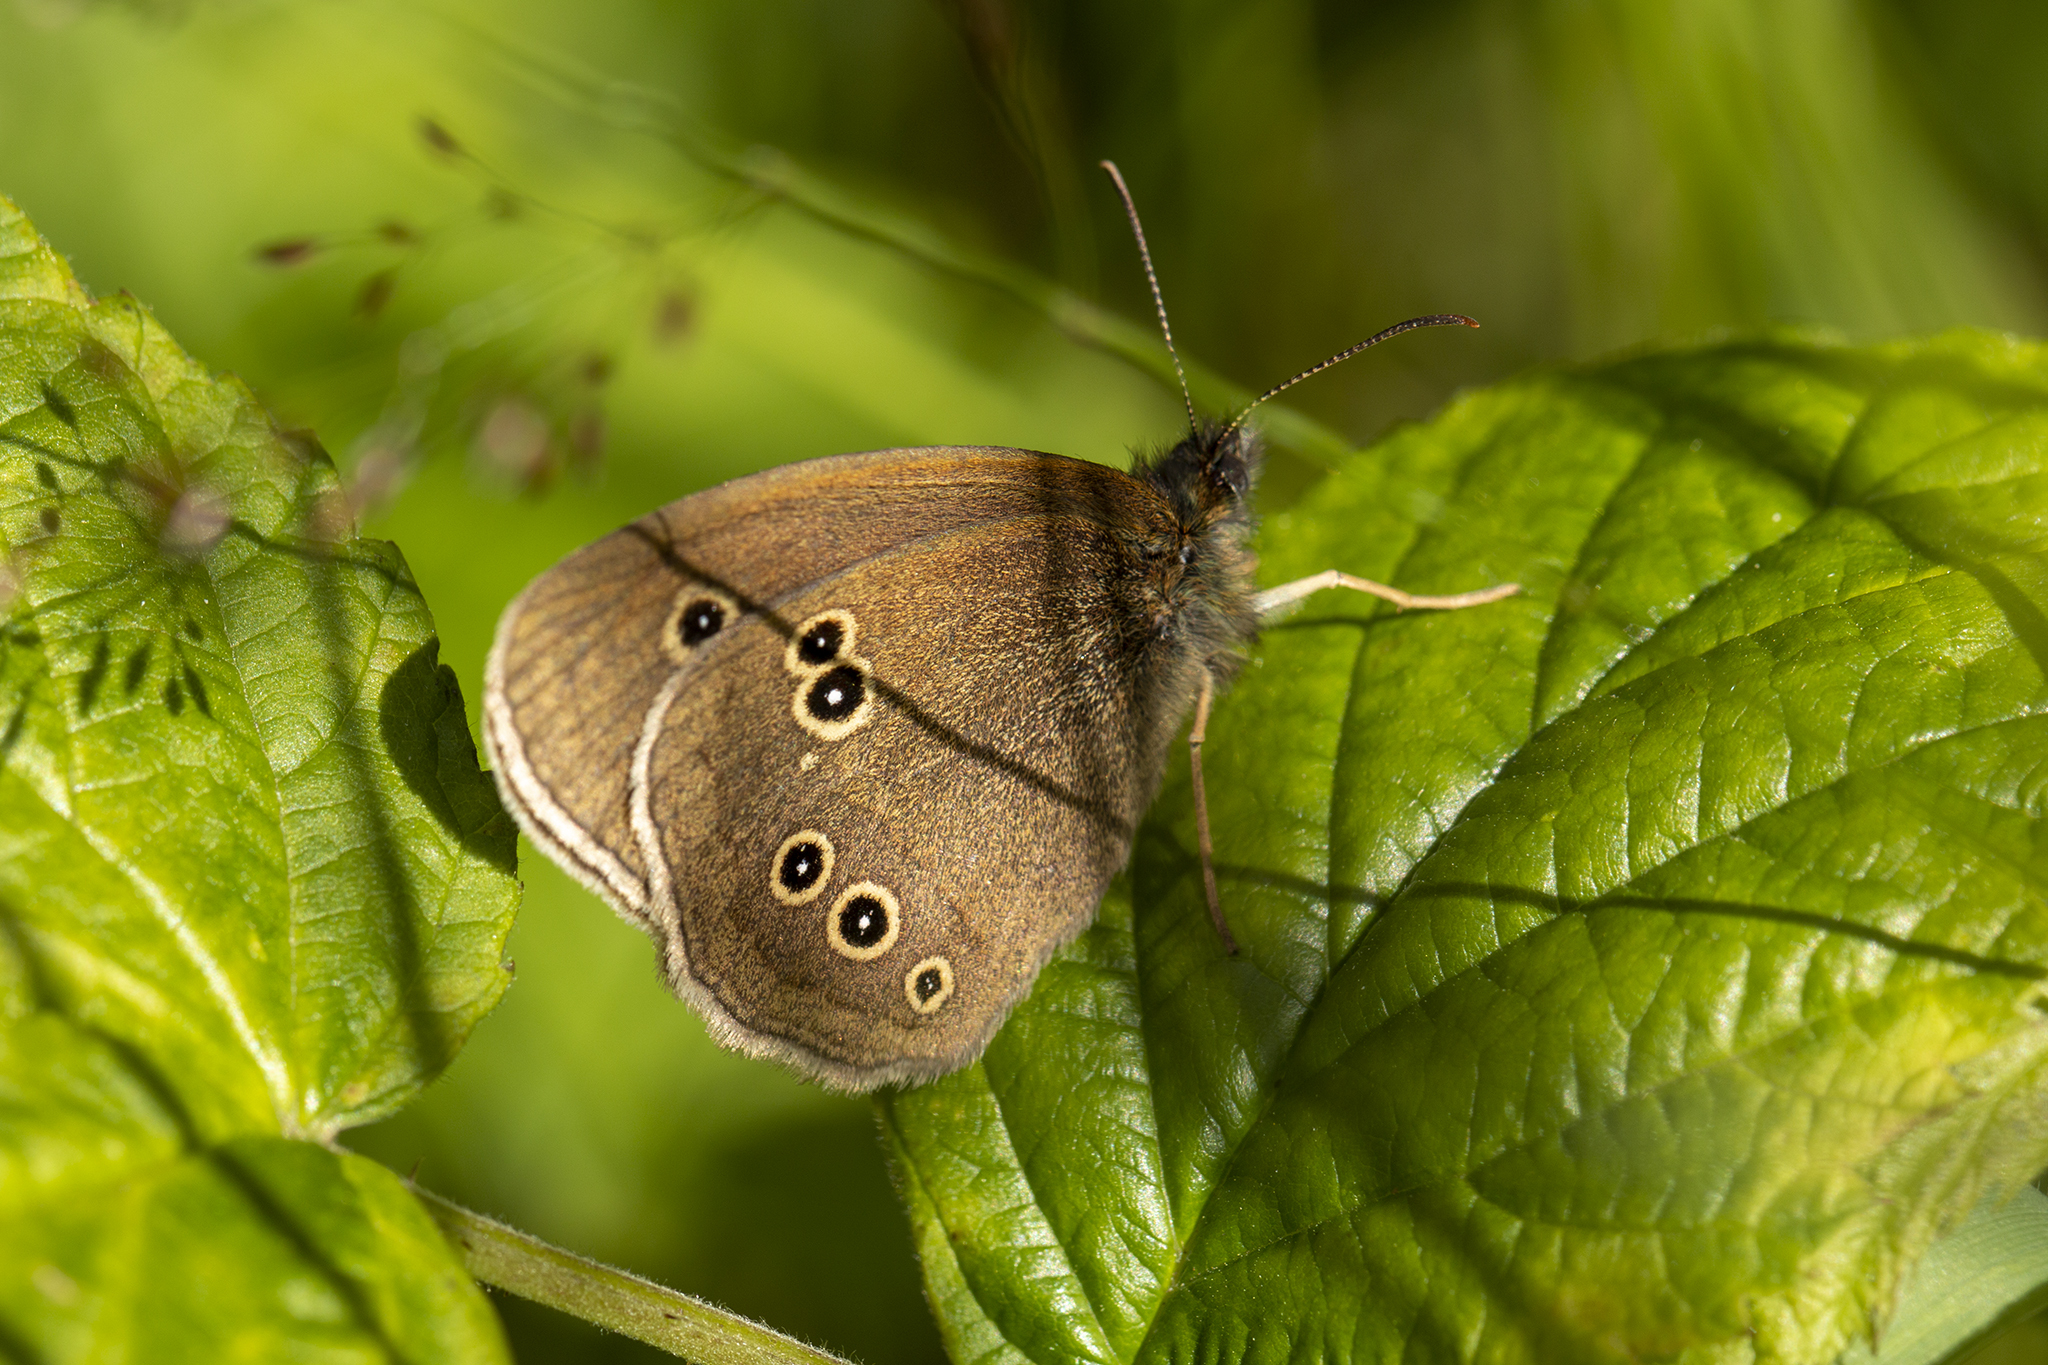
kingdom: Animalia
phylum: Arthropoda
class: Insecta
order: Lepidoptera
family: Nymphalidae
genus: Aphantopus
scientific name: Aphantopus hyperantus
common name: Ringlet
